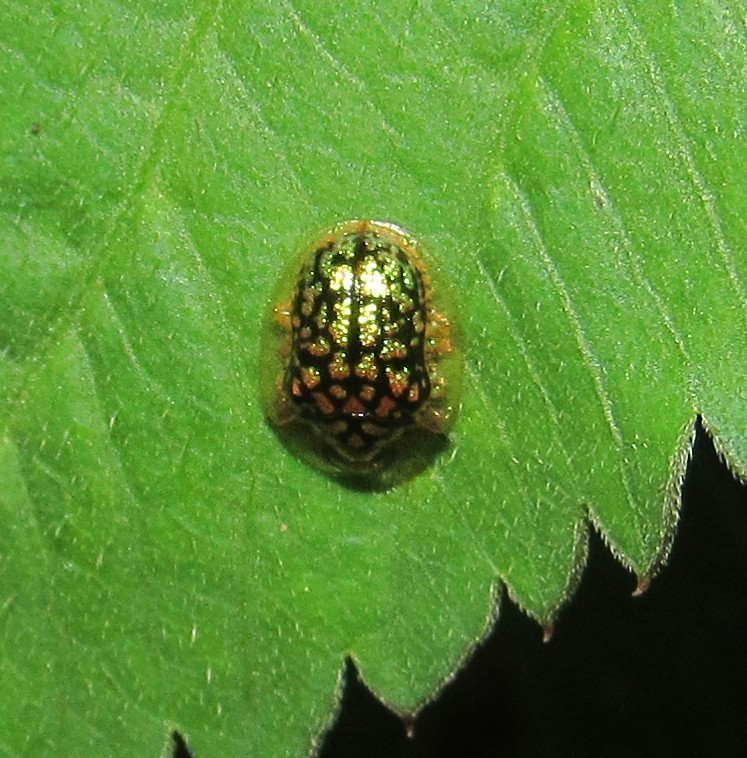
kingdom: Animalia
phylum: Arthropoda
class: Insecta
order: Coleoptera
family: Chrysomelidae
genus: Cteisella
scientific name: Cteisella confusa
